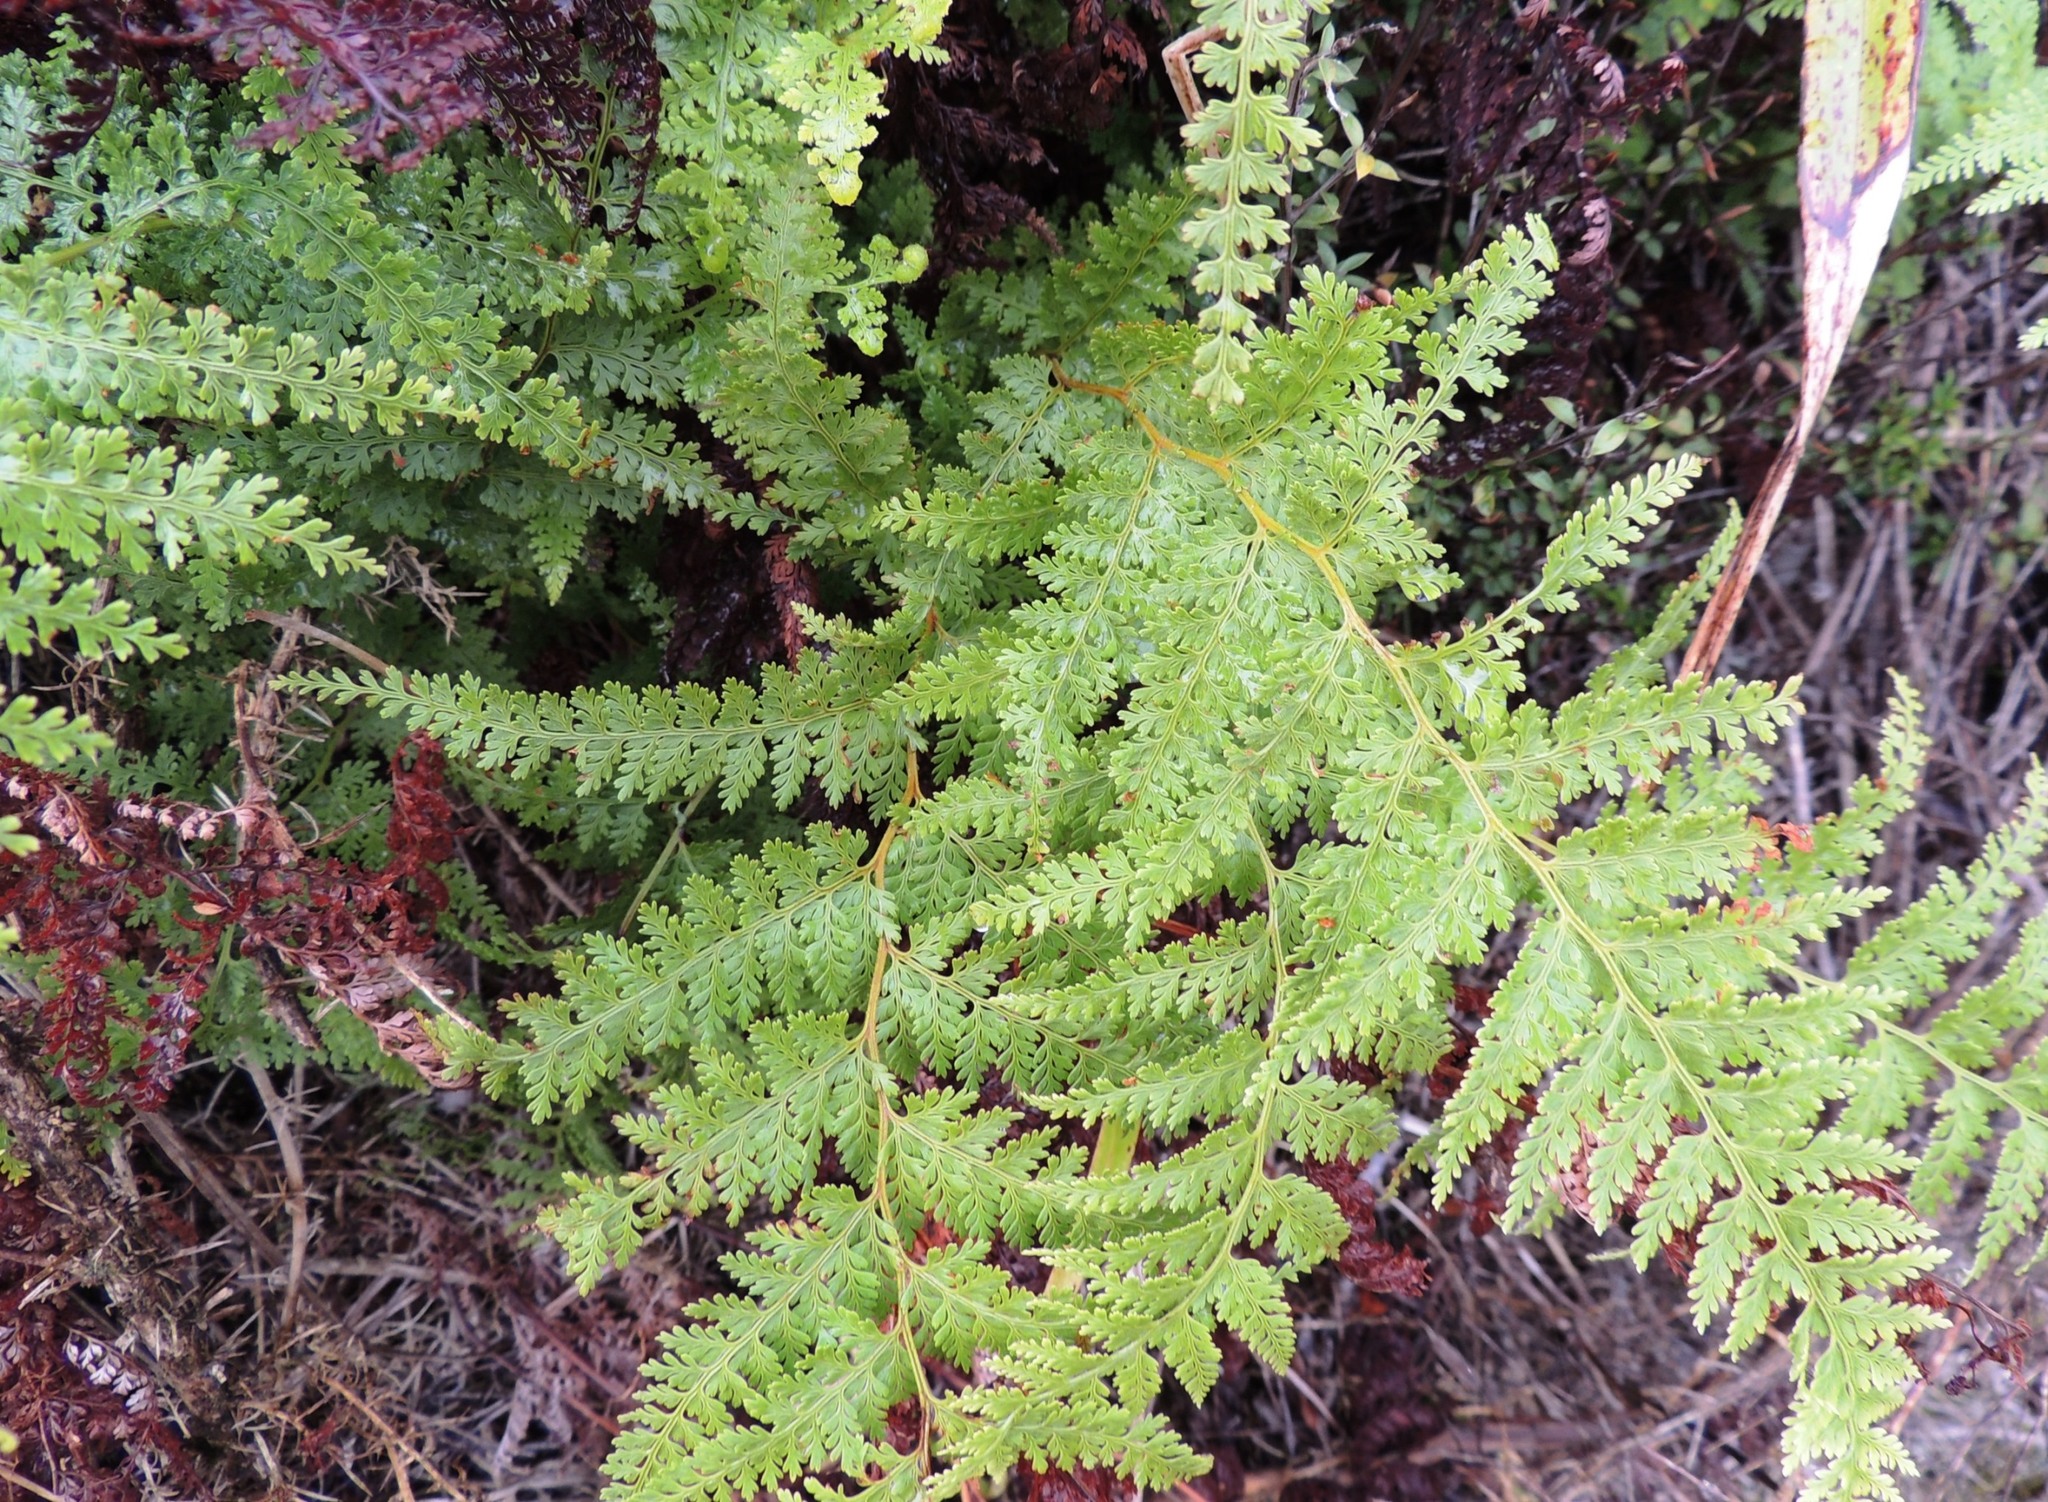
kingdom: Plantae
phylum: Tracheophyta
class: Polypodiopsida
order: Polypodiales
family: Dennstaedtiaceae
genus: Paesia
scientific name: Paesia scaberula
